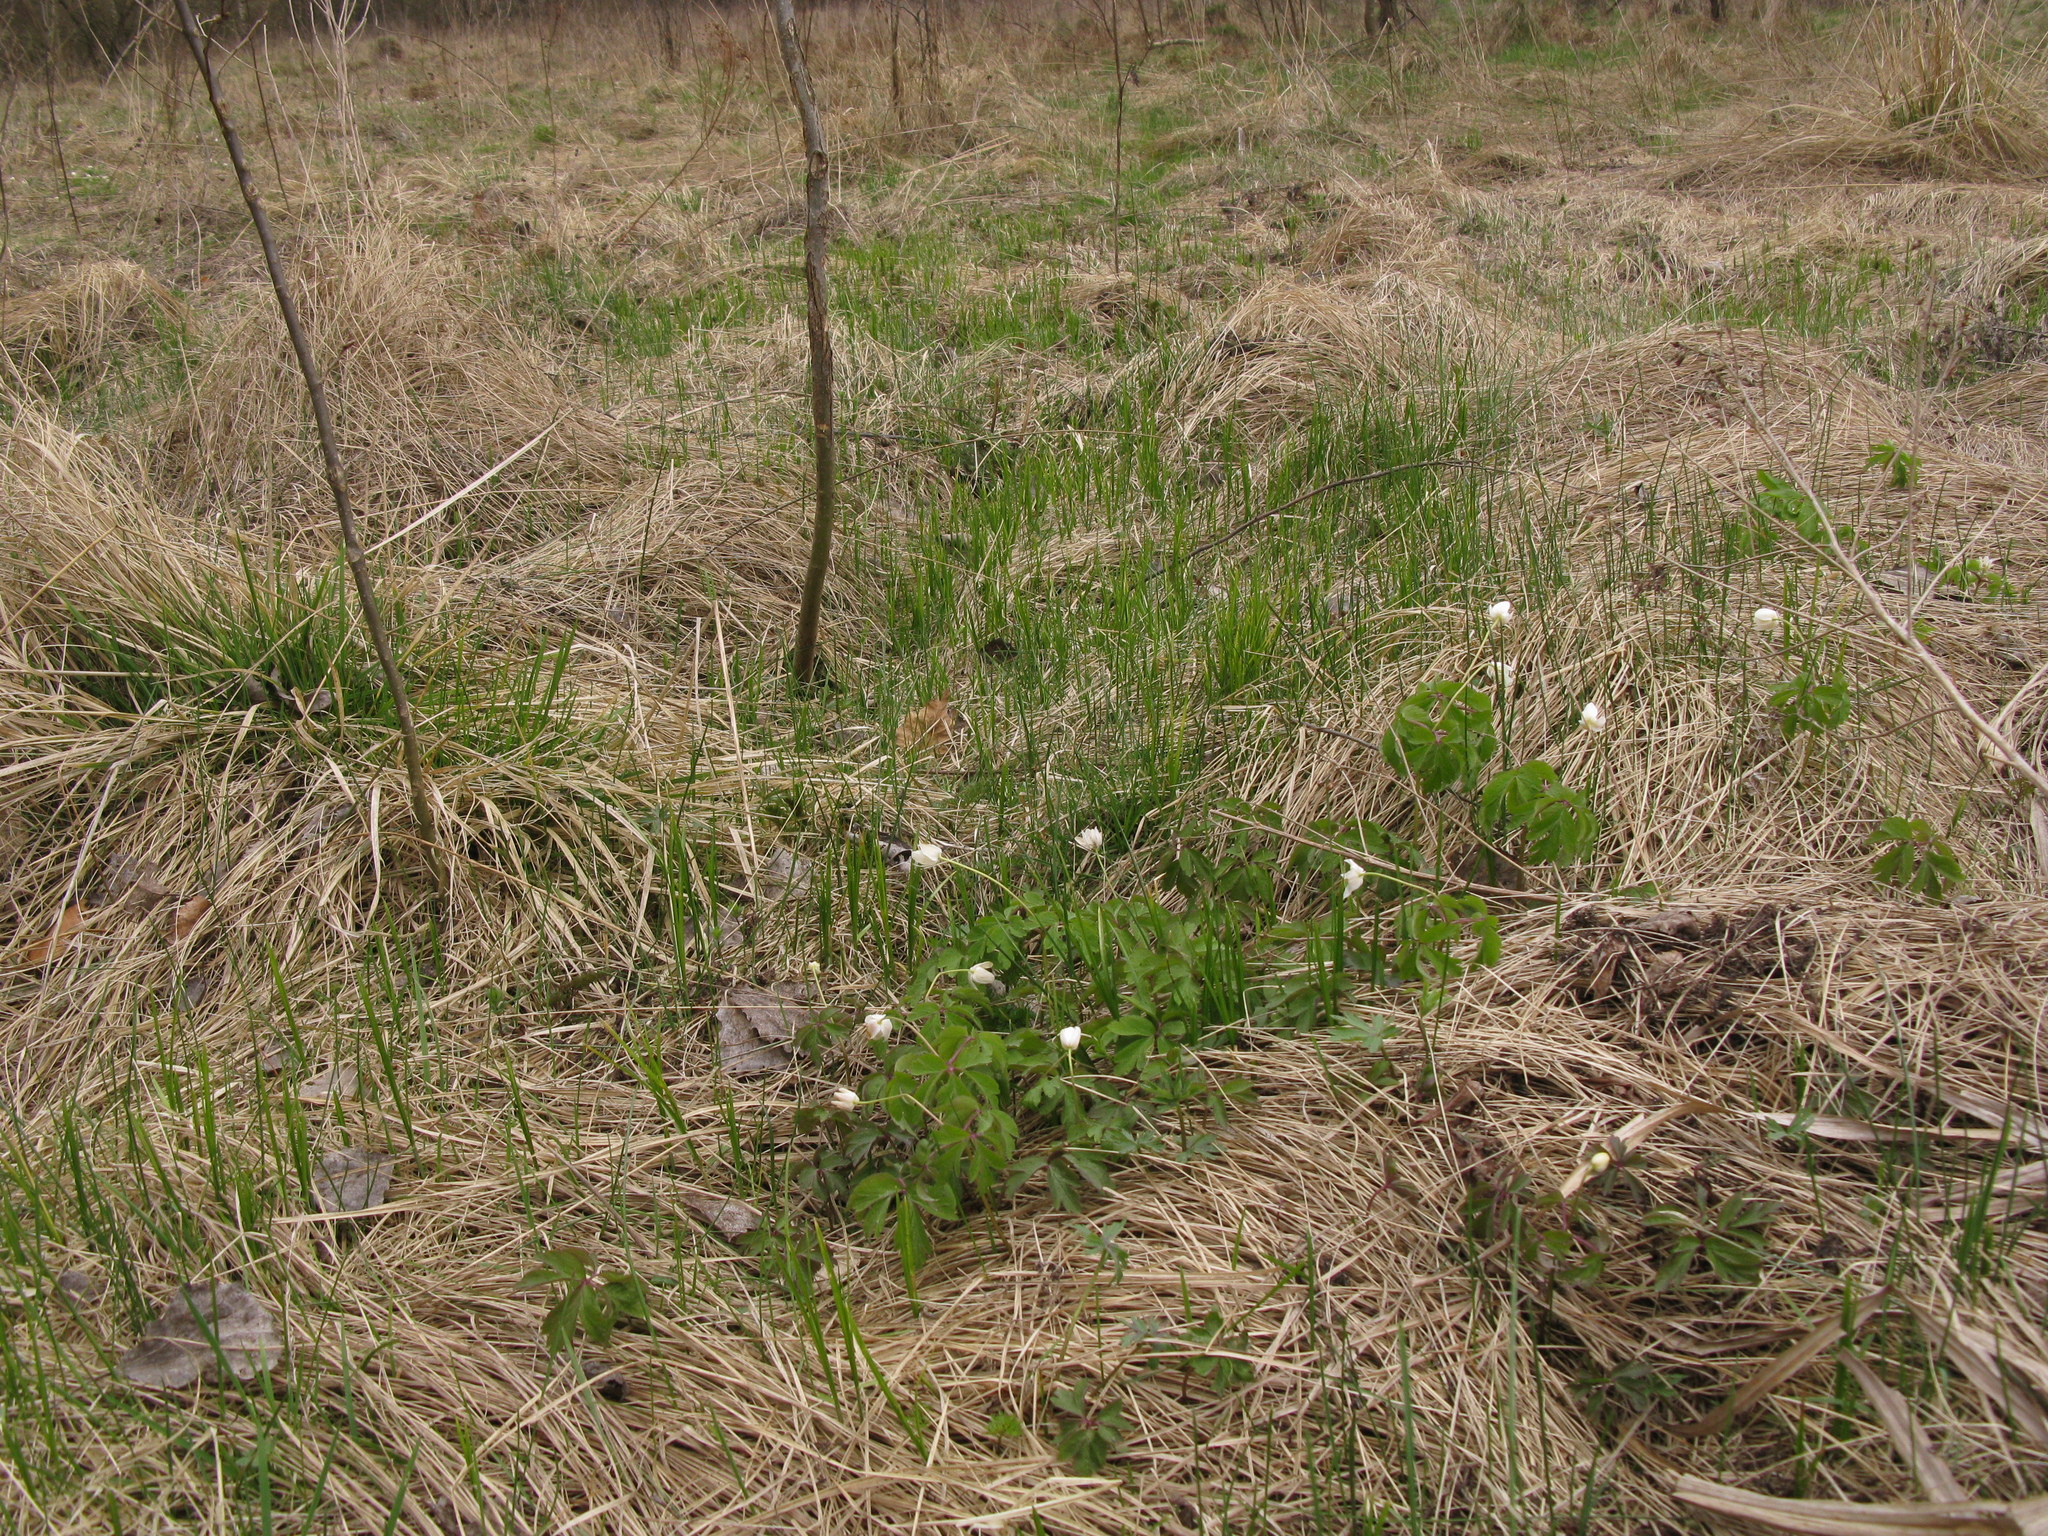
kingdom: Plantae
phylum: Tracheophyta
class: Magnoliopsida
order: Ranunculales
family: Ranunculaceae
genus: Anemone
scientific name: Anemone nemorosa
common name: Wood anemone
